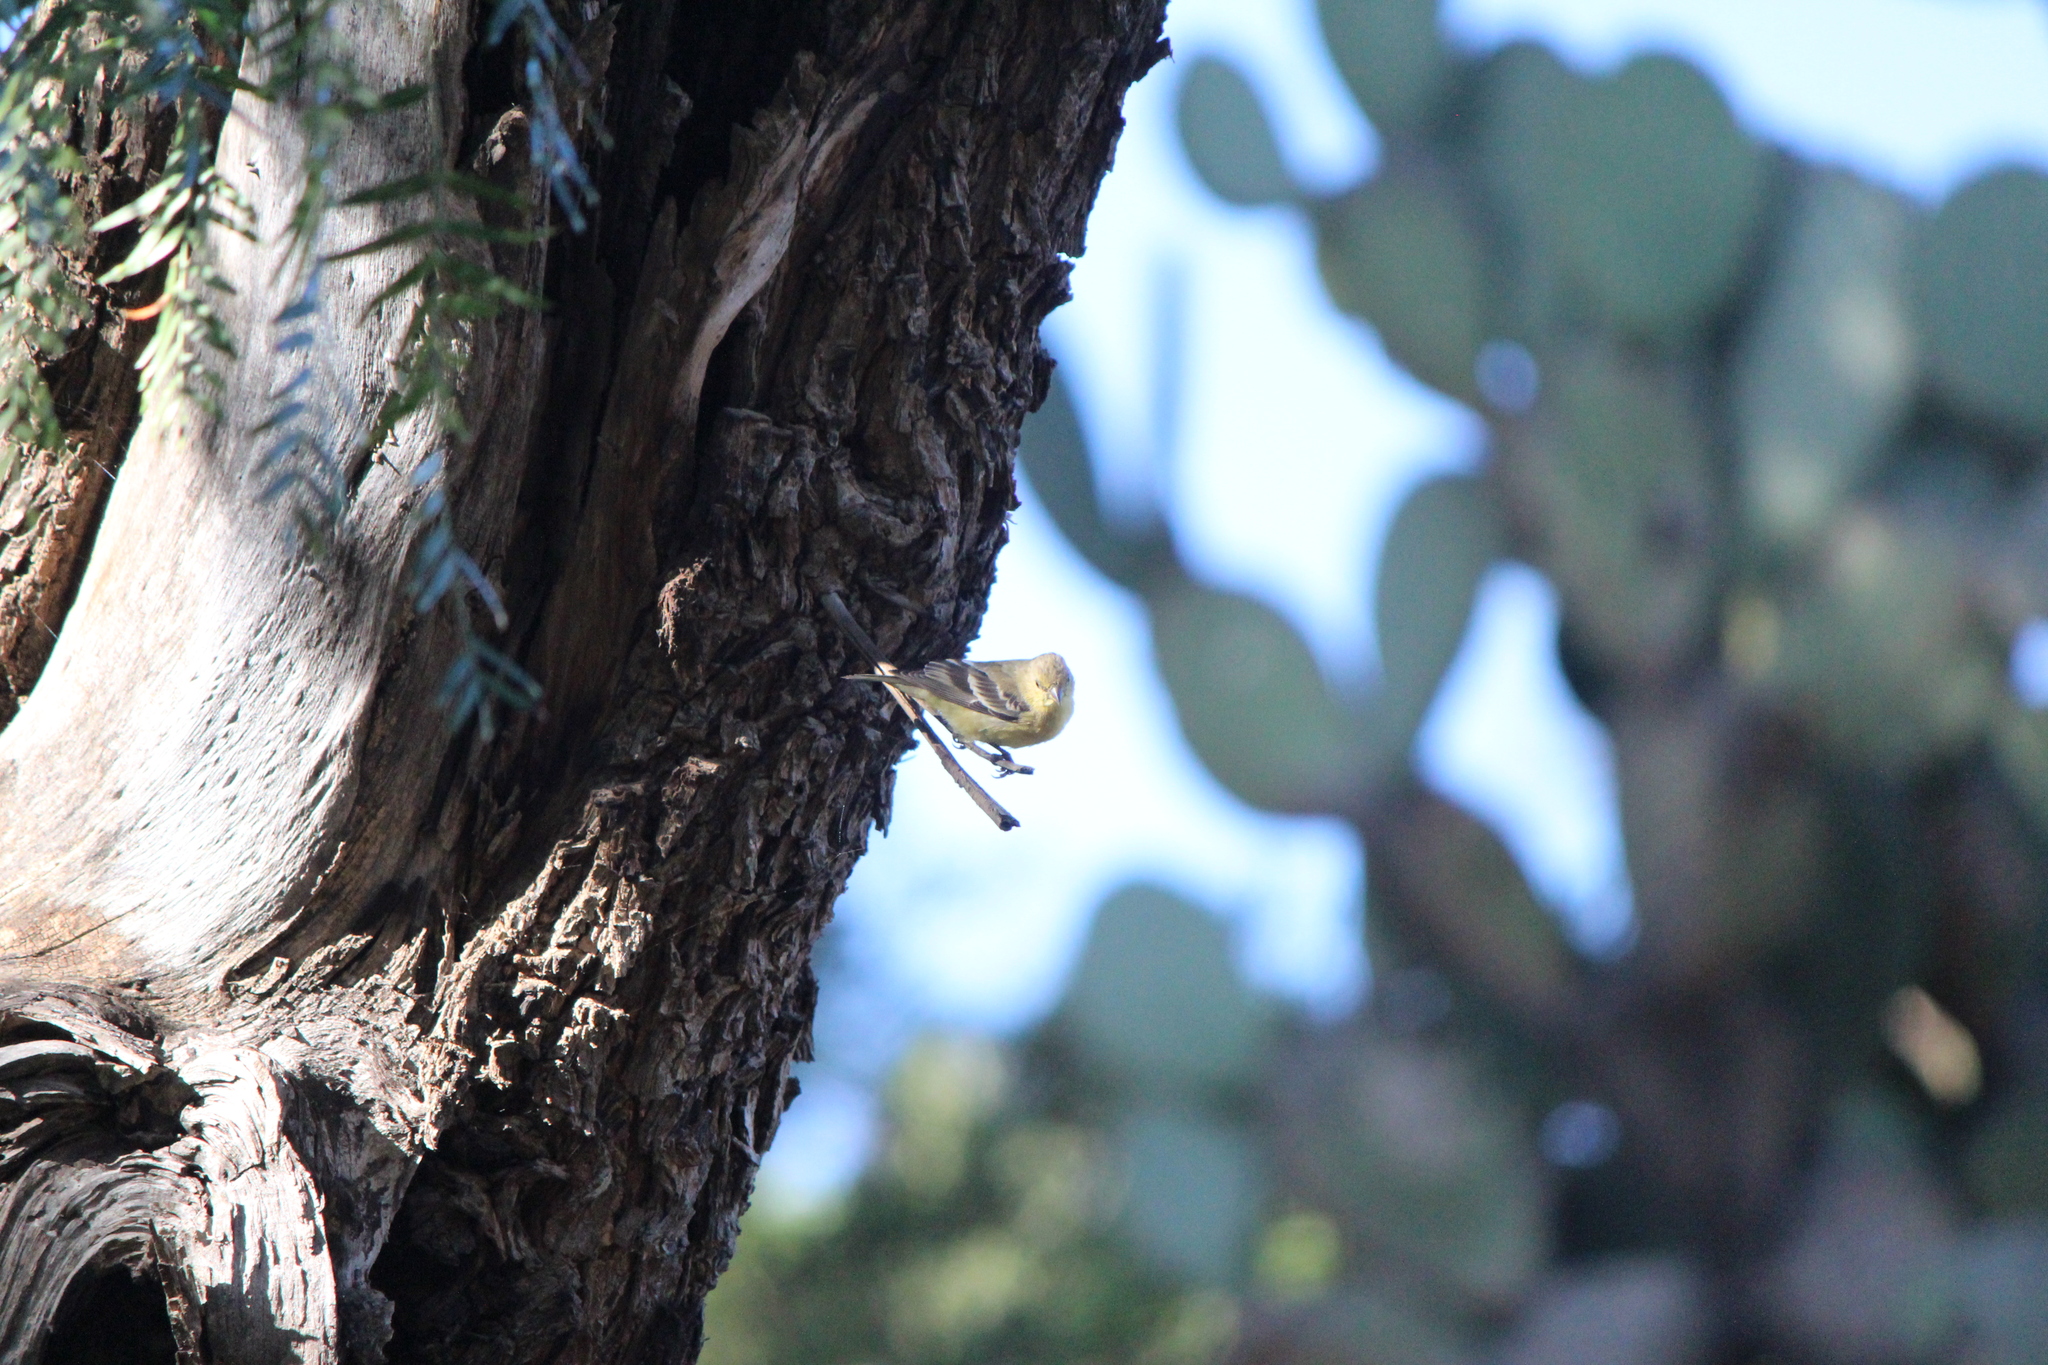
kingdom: Animalia
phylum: Chordata
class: Aves
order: Passeriformes
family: Fringillidae
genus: Spinus
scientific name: Spinus psaltria
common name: Lesser goldfinch
